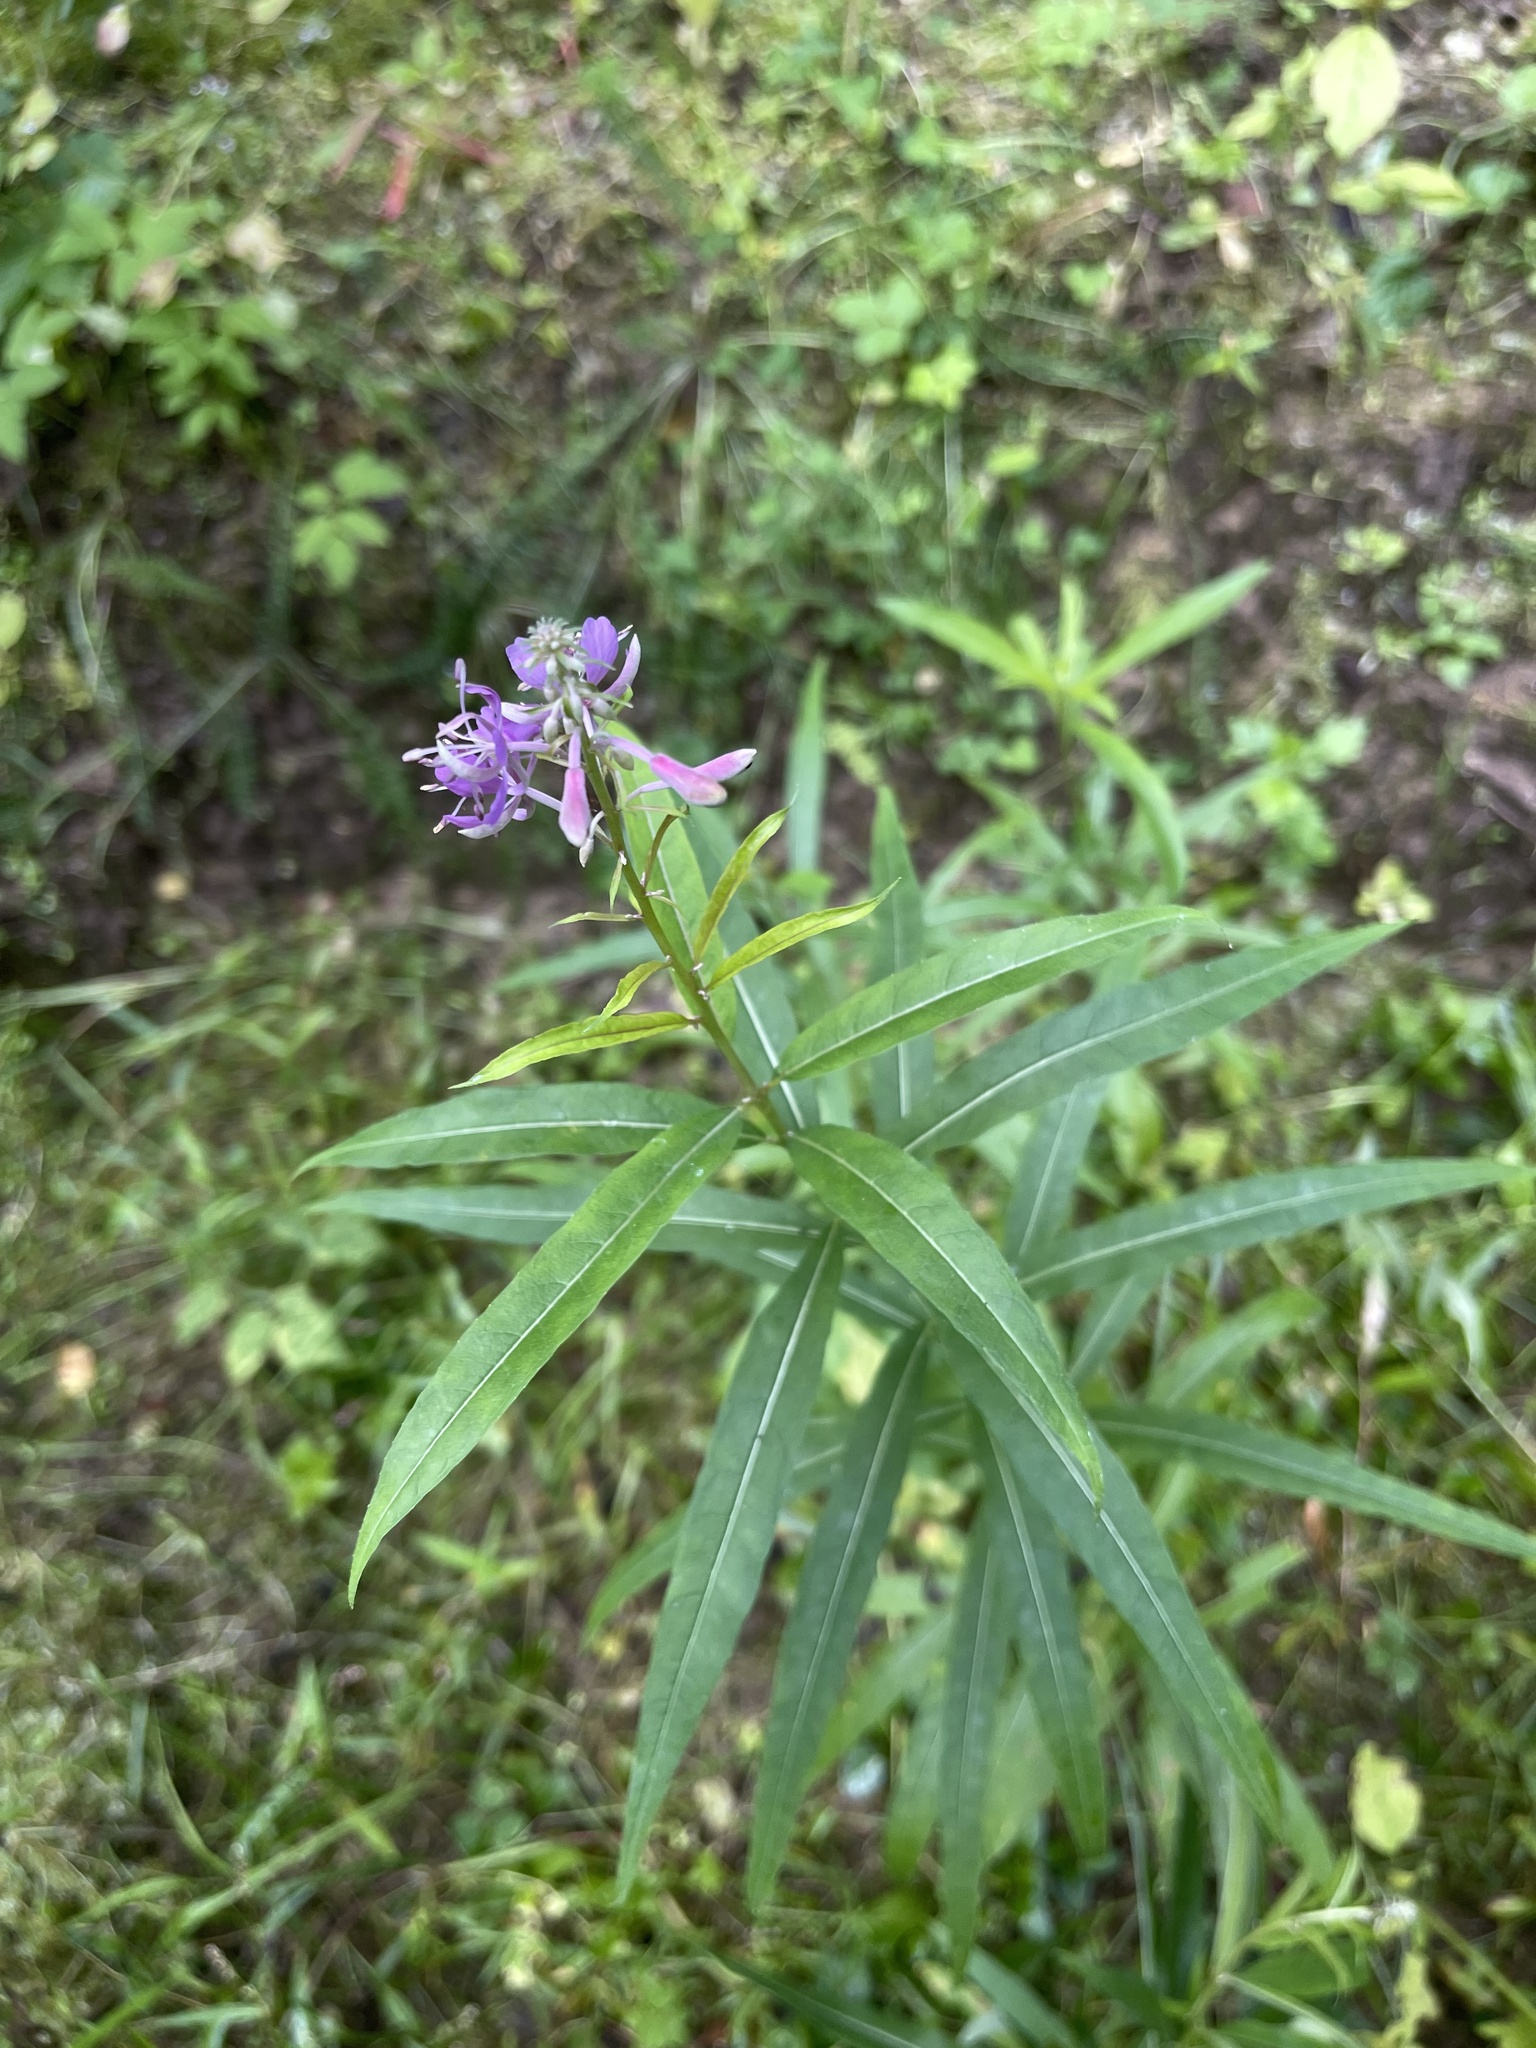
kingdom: Plantae
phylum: Tracheophyta
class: Magnoliopsida
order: Myrtales
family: Onagraceae
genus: Chamaenerion
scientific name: Chamaenerion angustifolium
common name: Fireweed
